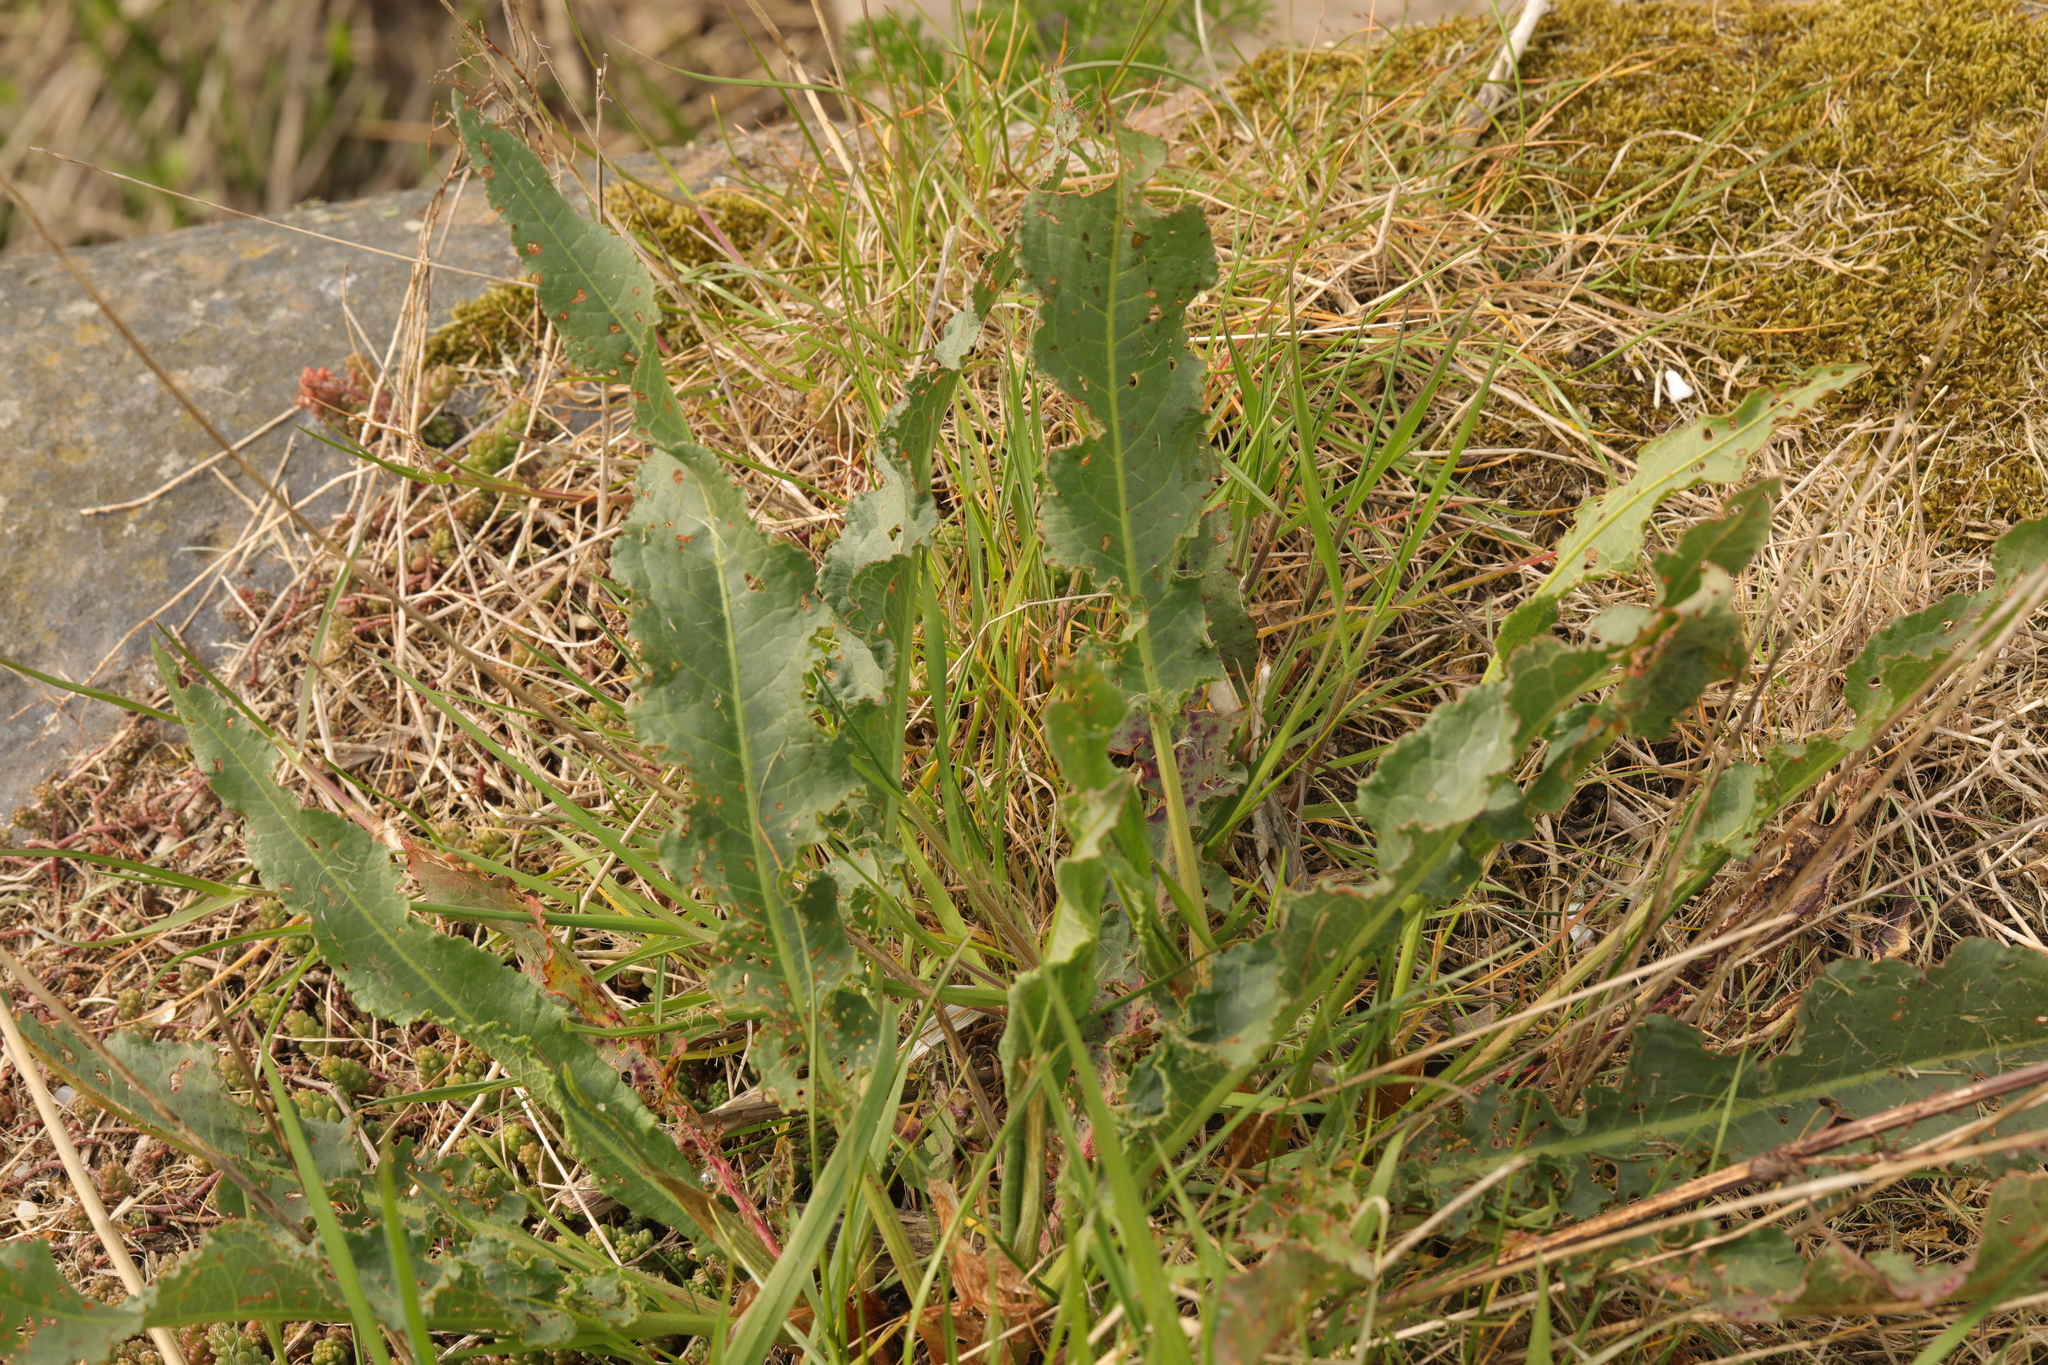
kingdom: Plantae
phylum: Tracheophyta
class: Magnoliopsida
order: Caryophyllales
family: Polygonaceae
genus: Rumex
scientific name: Rumex crispus
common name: Curled dock
